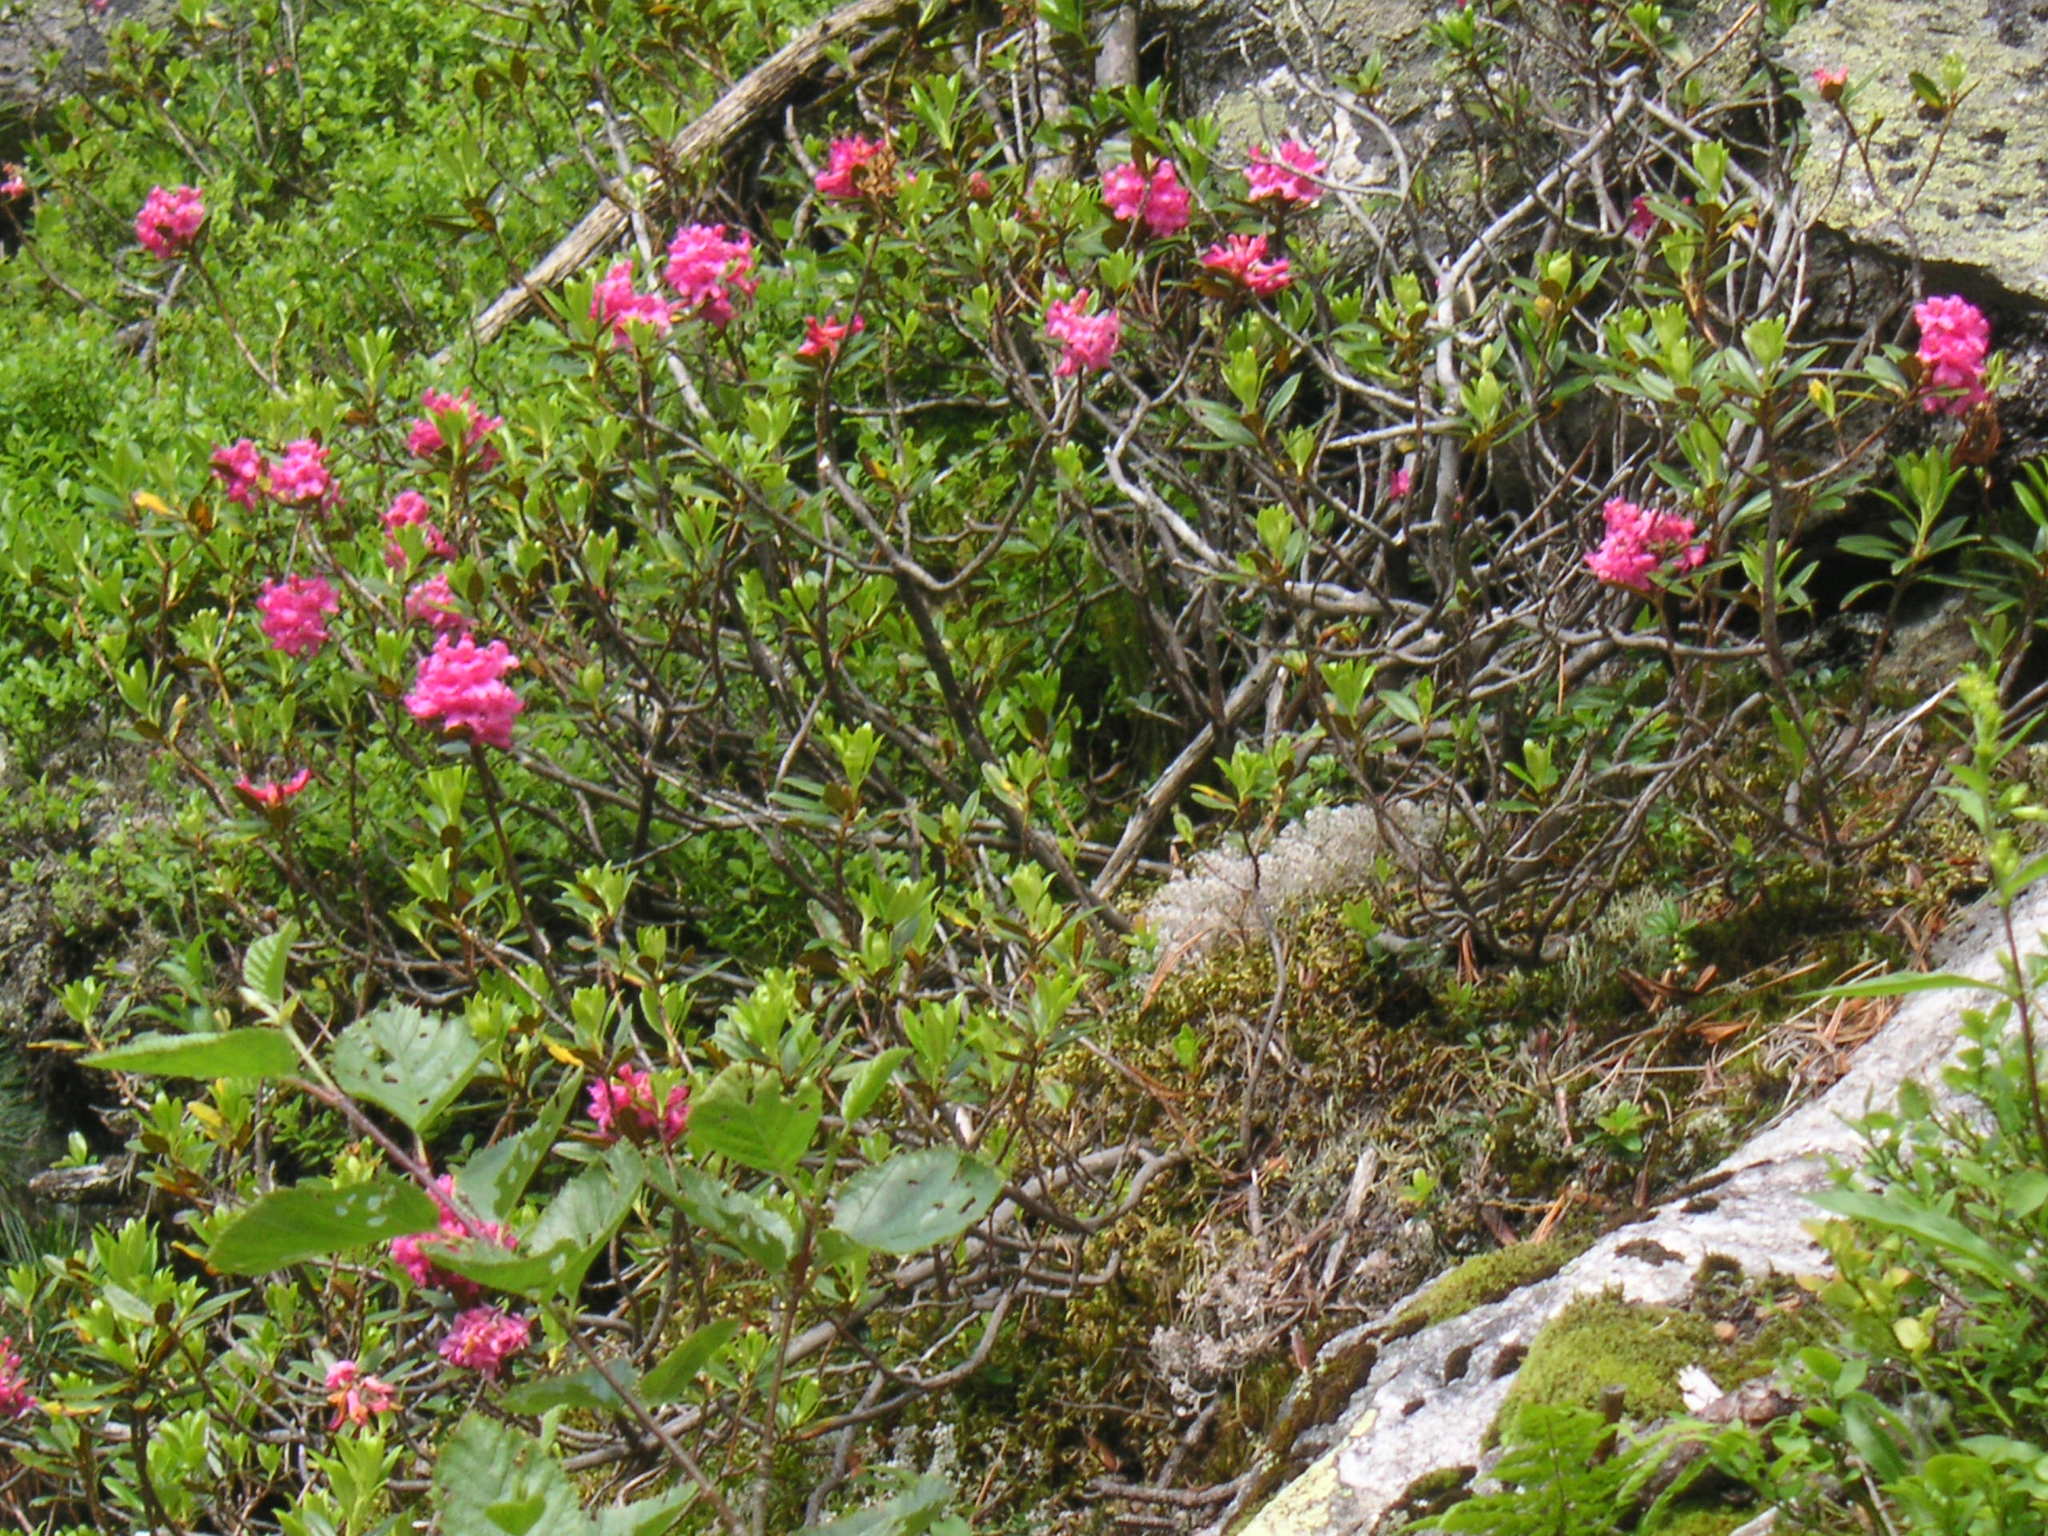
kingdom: Plantae
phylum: Tracheophyta
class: Magnoliopsida
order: Ericales
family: Ericaceae
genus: Rhododendron
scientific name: Rhododendron ferrugineum
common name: Alpenrose
